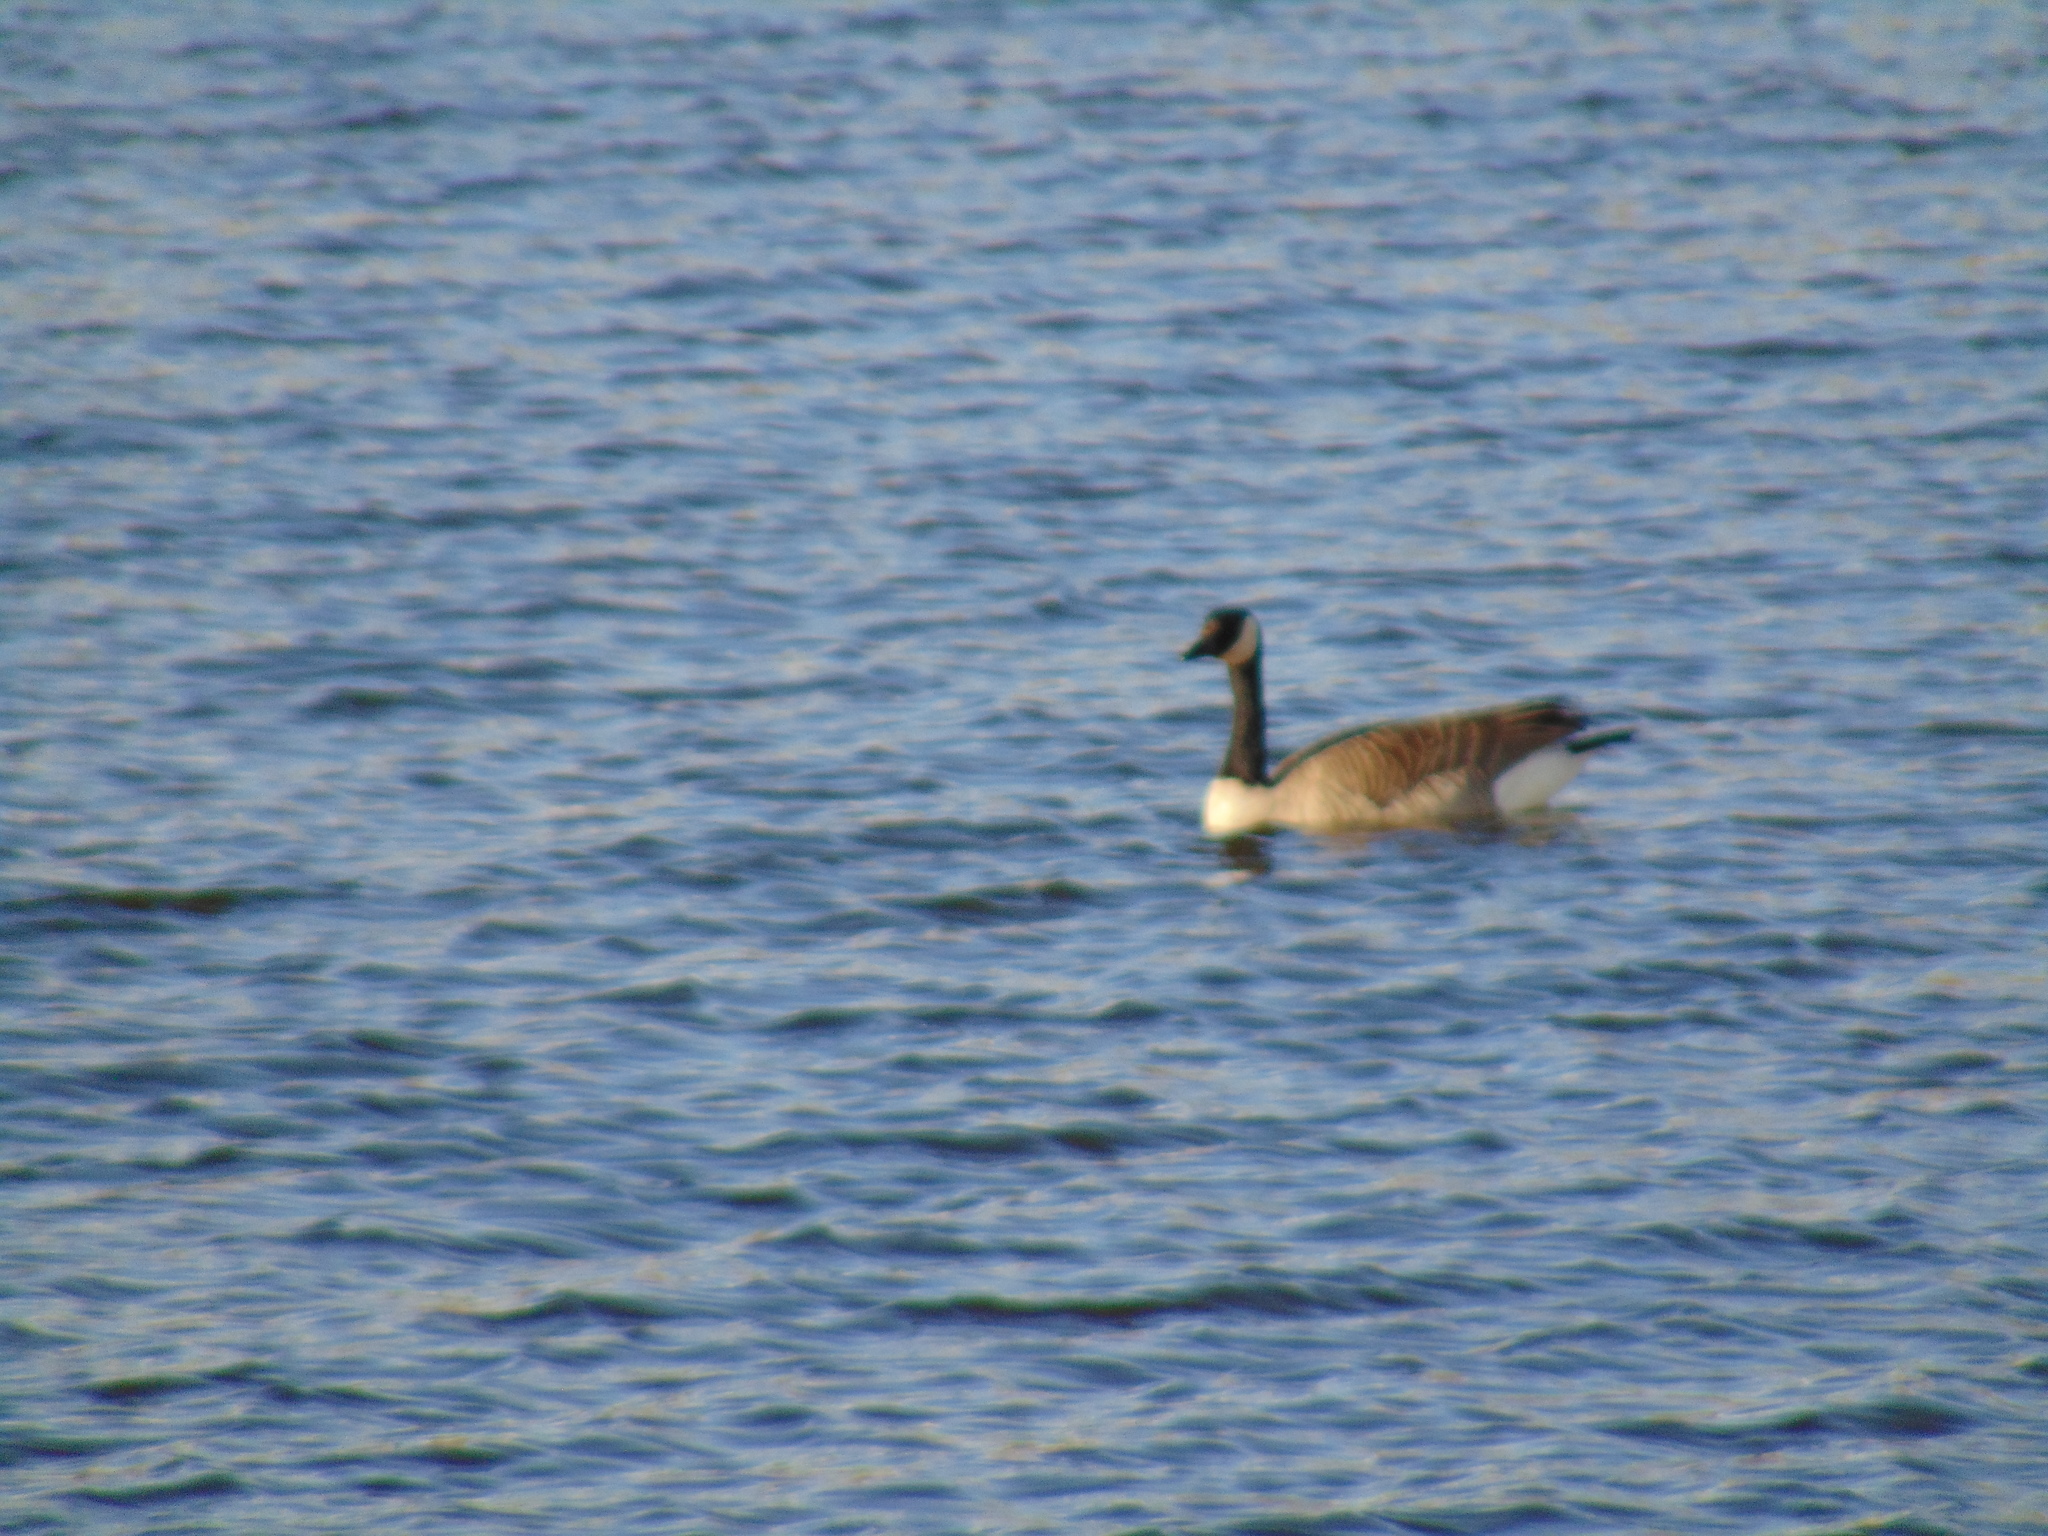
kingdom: Animalia
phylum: Chordata
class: Aves
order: Anseriformes
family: Anatidae
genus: Branta
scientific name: Branta canadensis
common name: Canada goose
